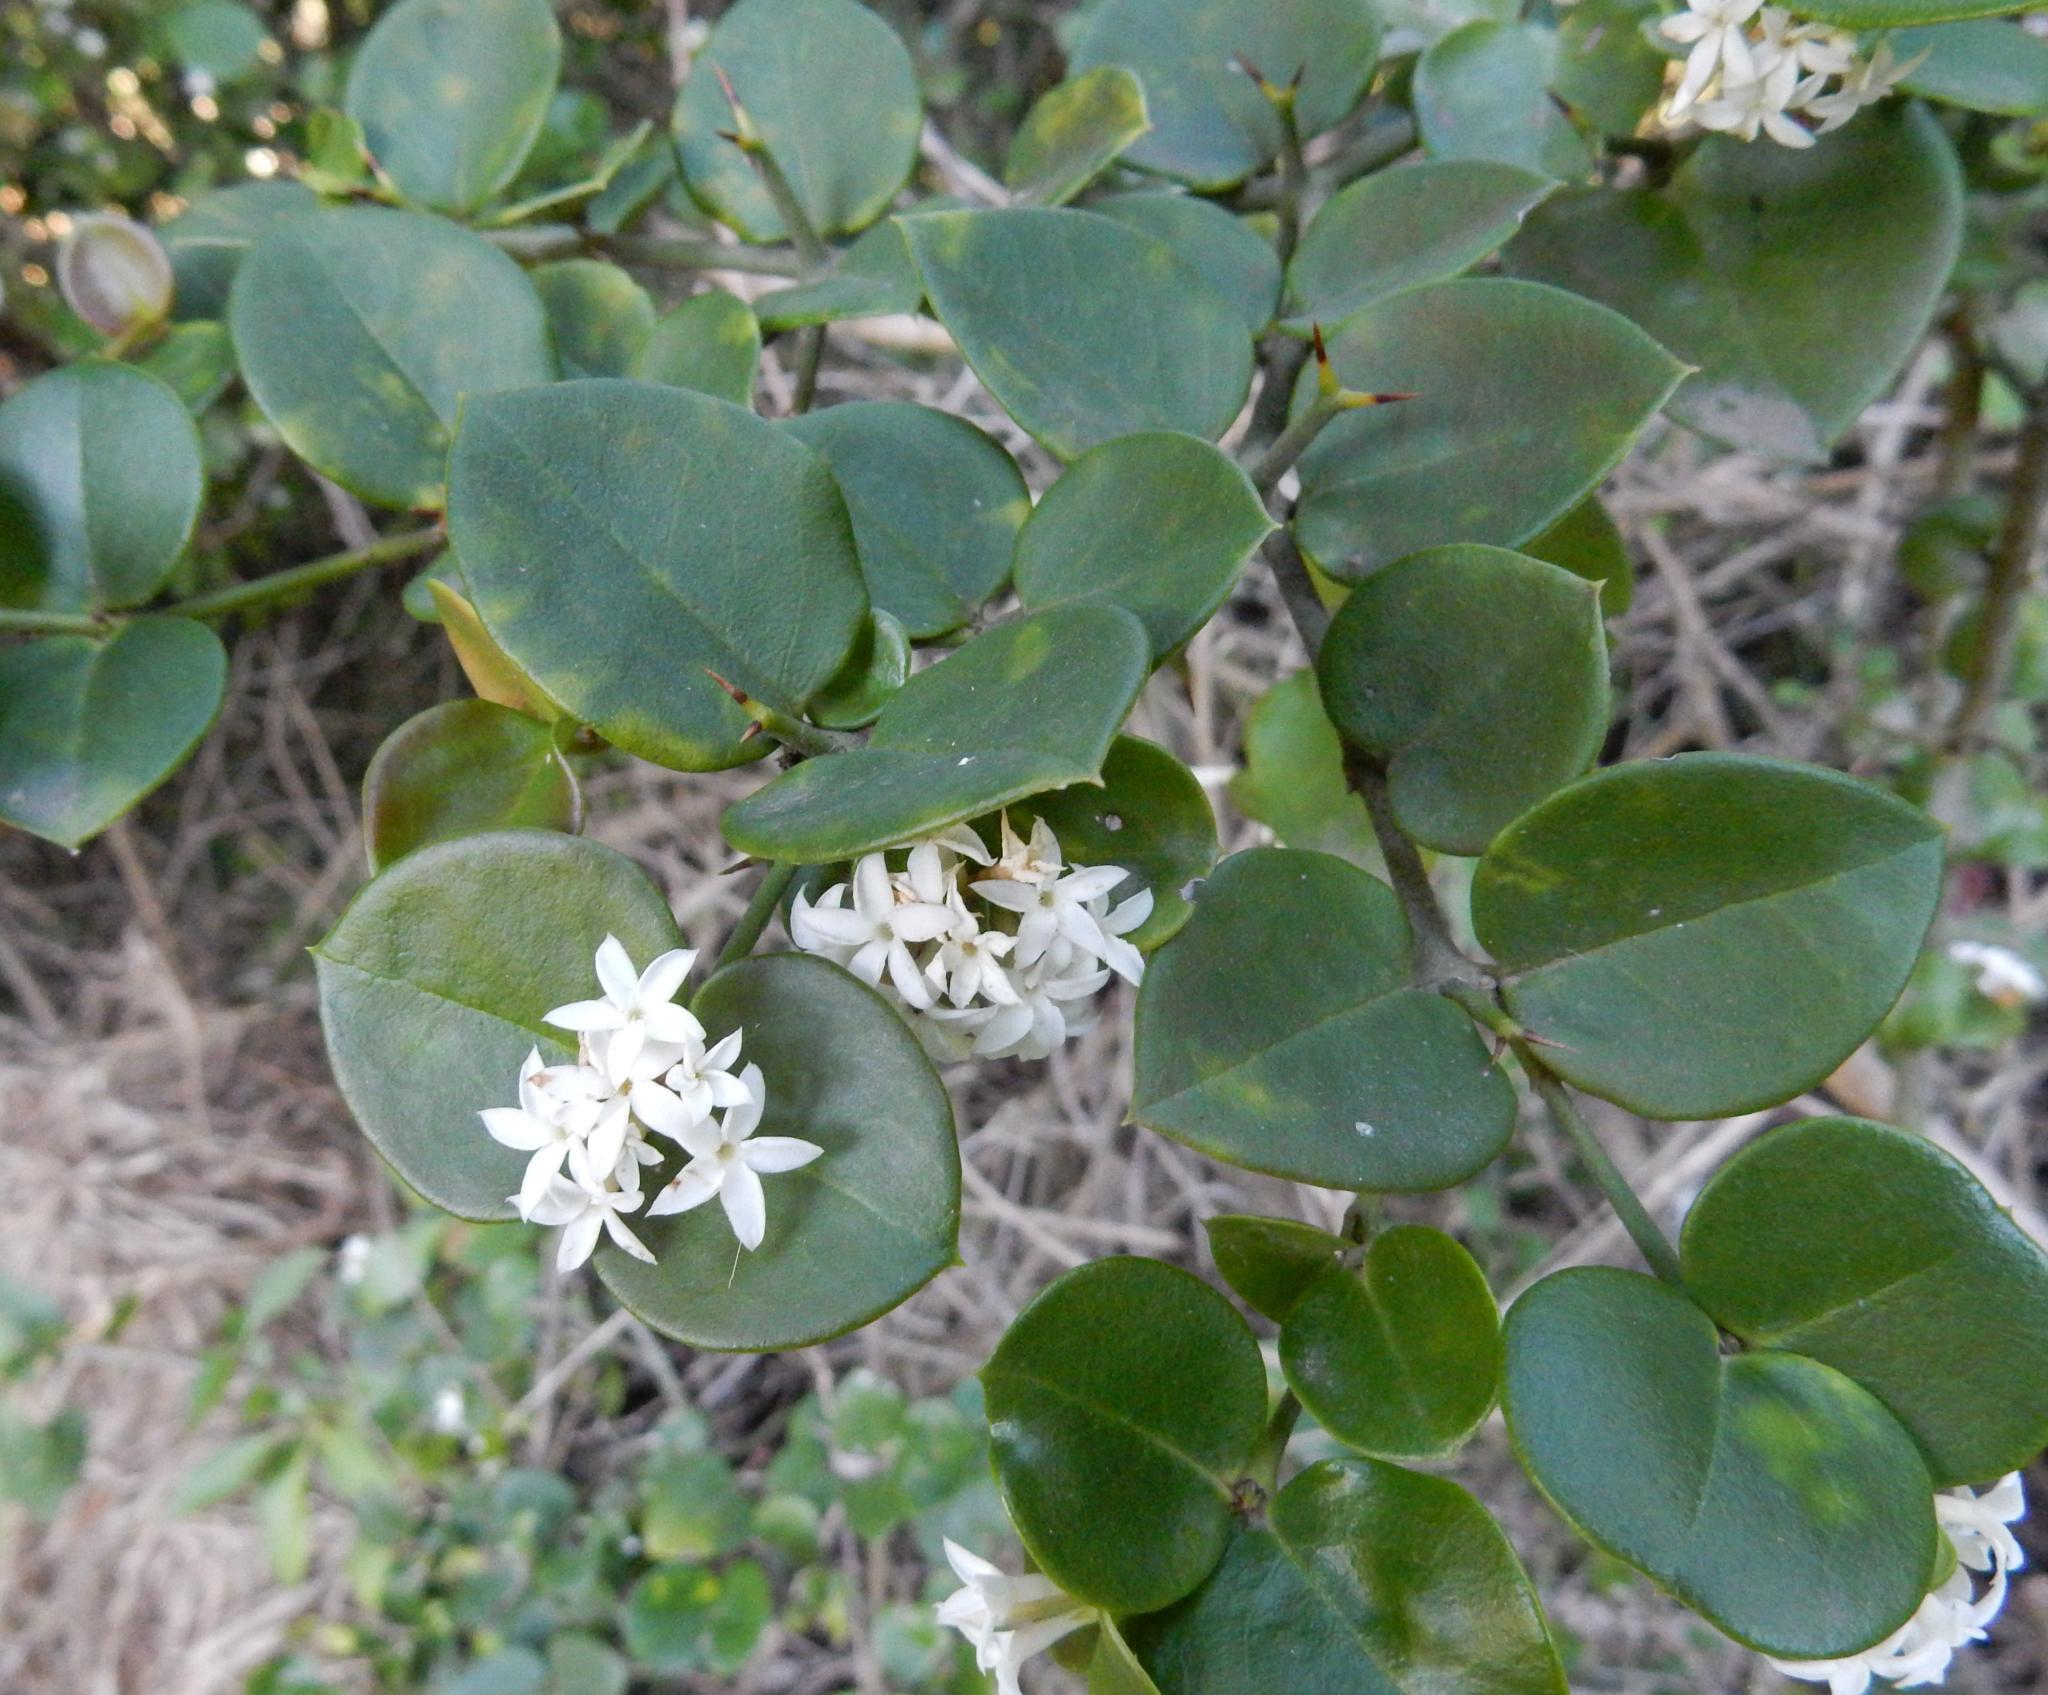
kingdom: Plantae
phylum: Tracheophyta
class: Magnoliopsida
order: Gentianales
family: Apocynaceae
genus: Carissa
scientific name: Carissa bispinosa
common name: Forest num-num
